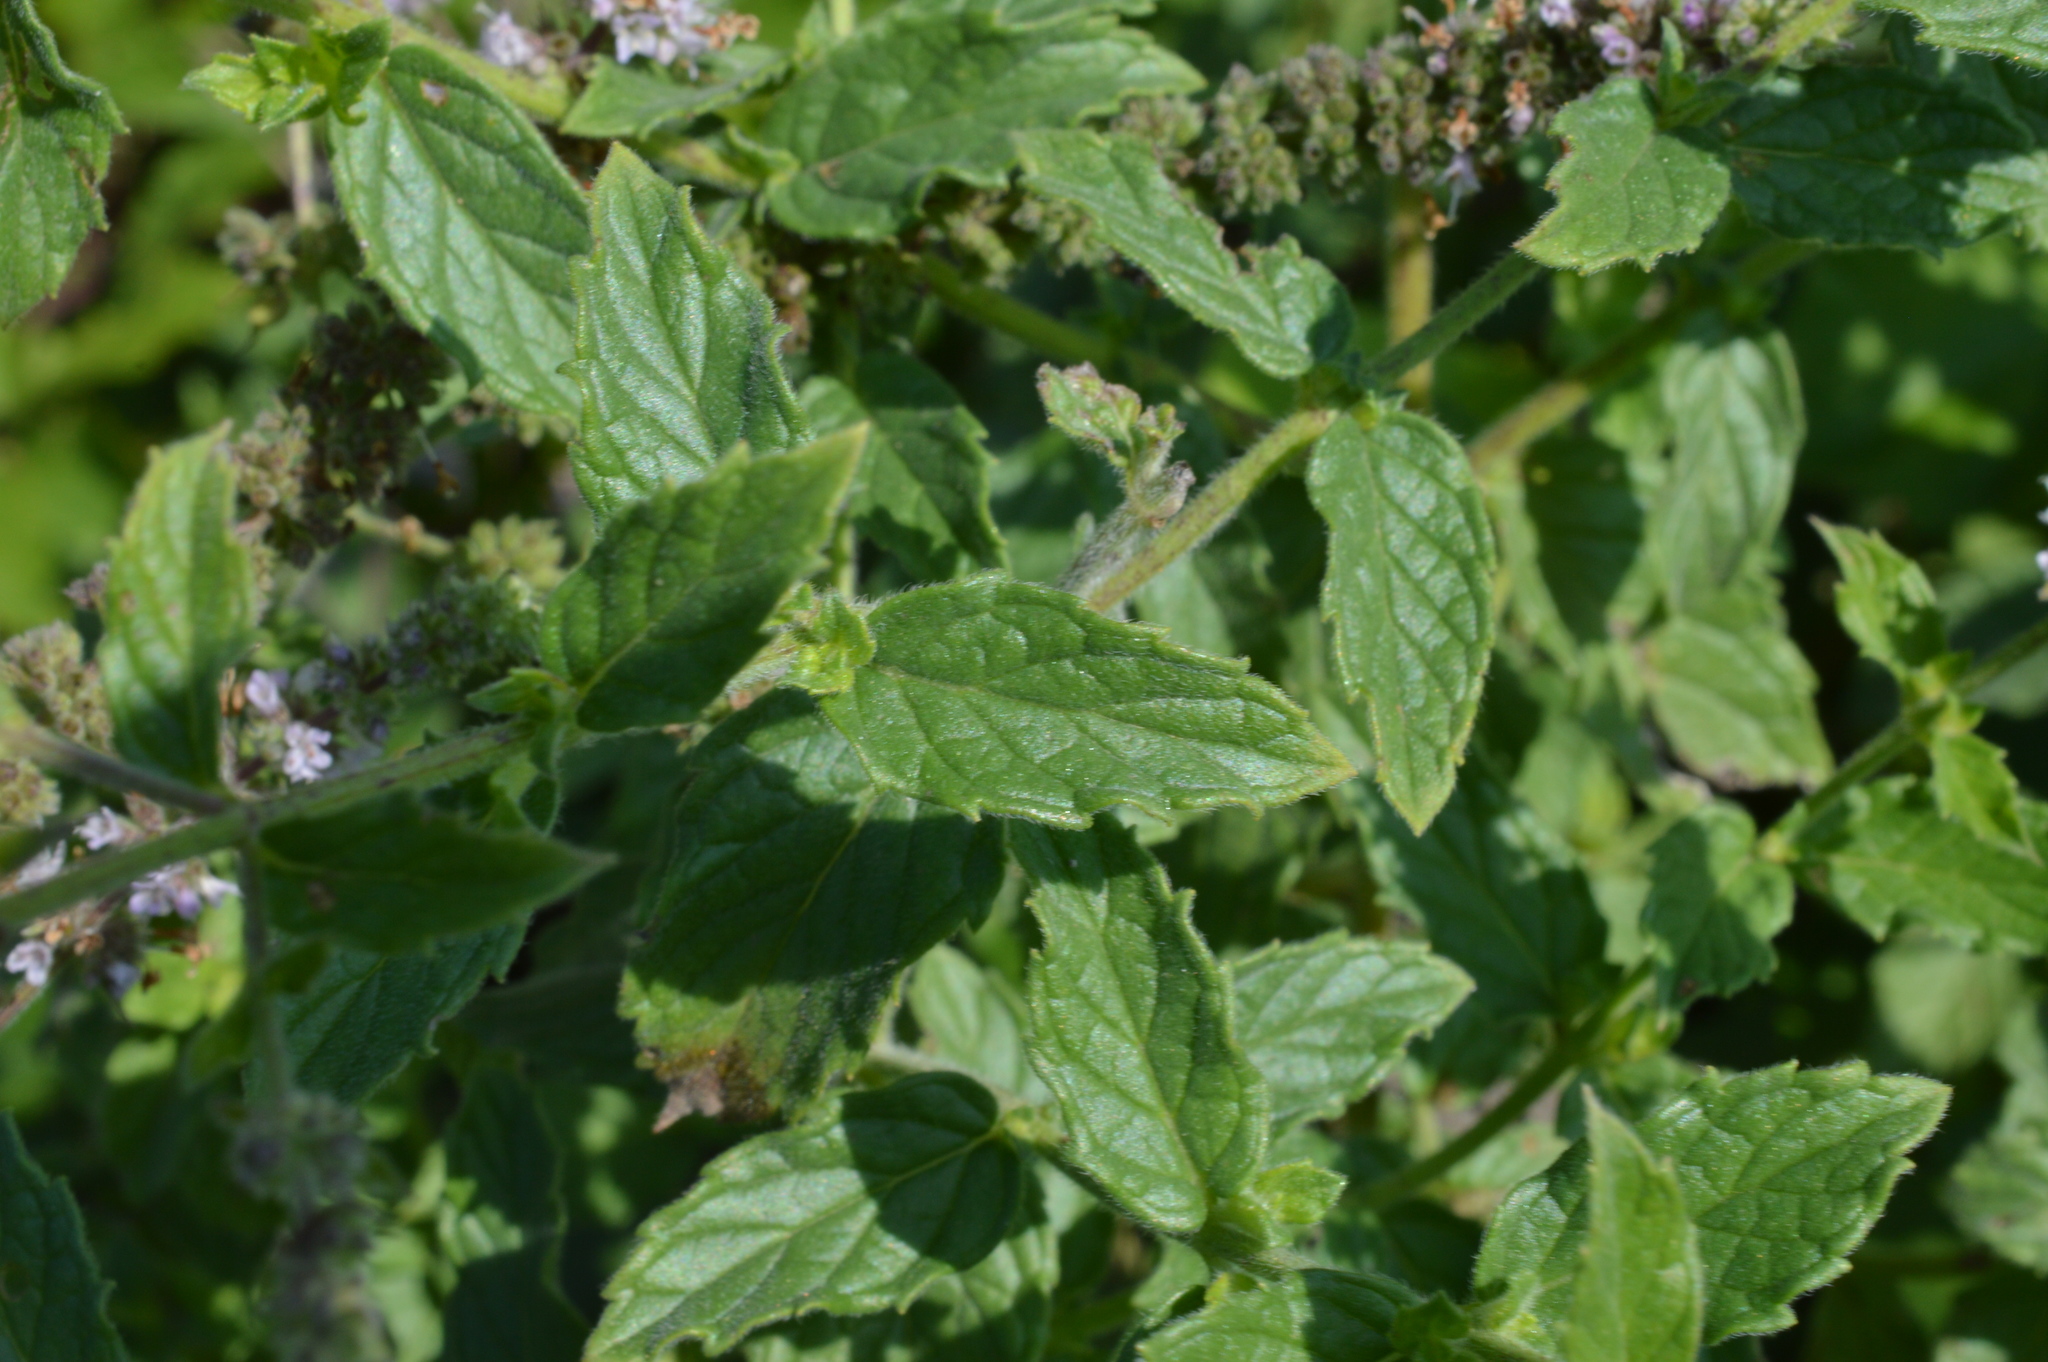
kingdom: Plantae
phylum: Tracheophyta
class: Magnoliopsida
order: Lamiales
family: Lamiaceae
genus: Mentha
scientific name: Mentha spicata
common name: Spearmint
